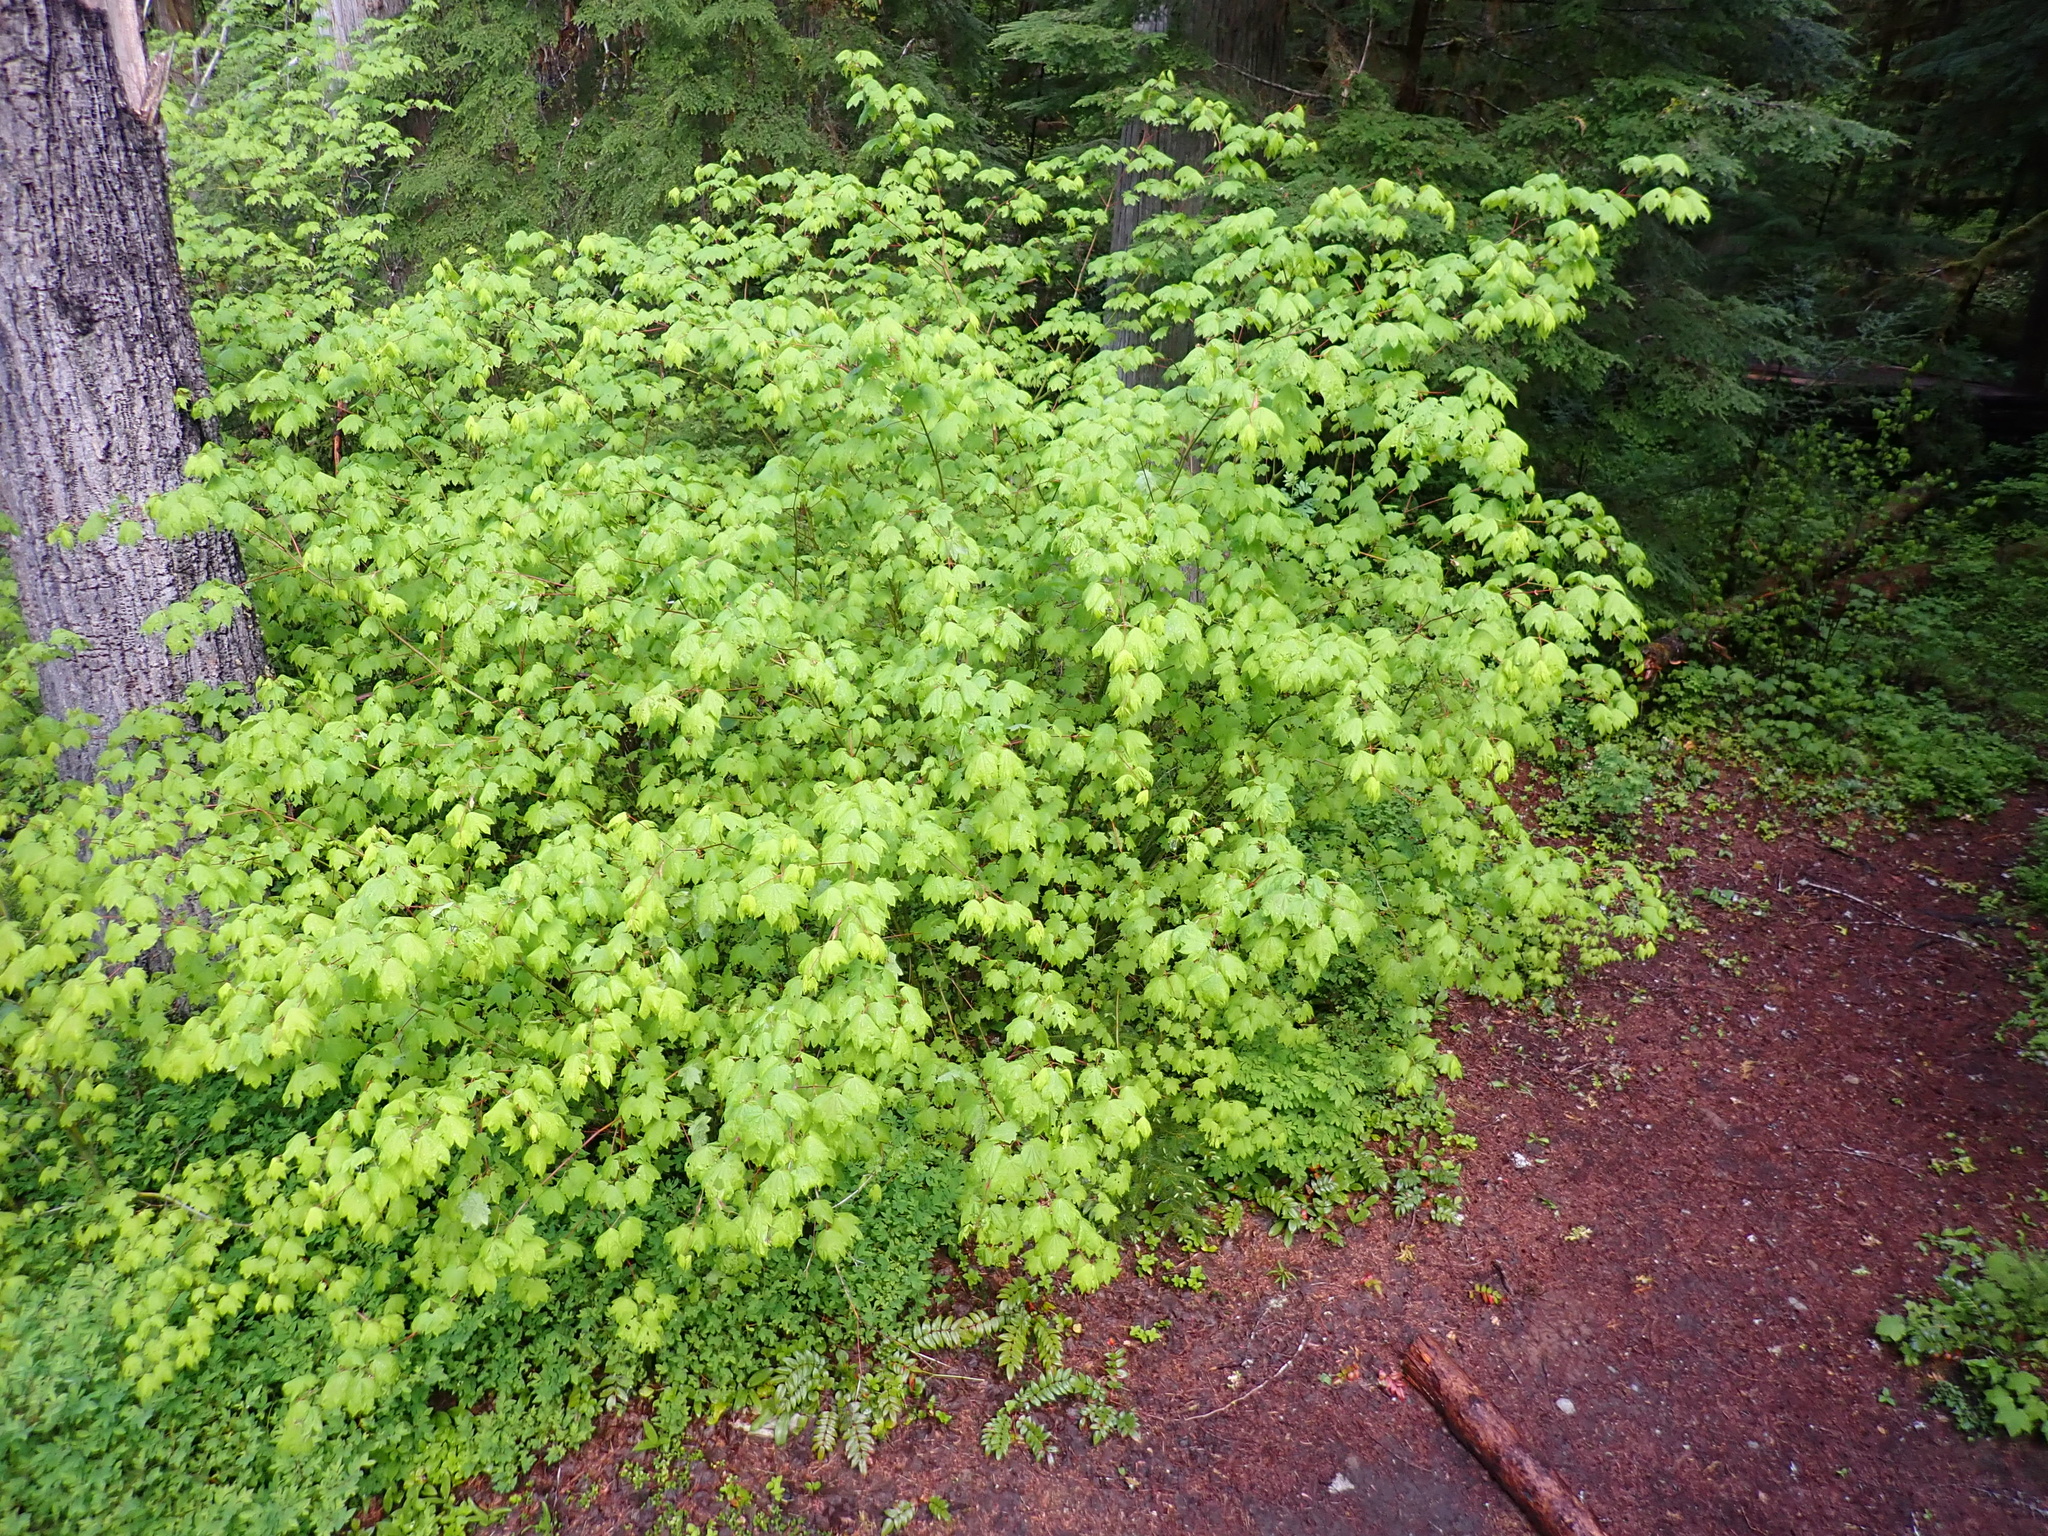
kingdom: Plantae
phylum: Tracheophyta
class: Magnoliopsida
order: Sapindales
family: Sapindaceae
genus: Acer
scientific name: Acer circinatum
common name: Vine maple
